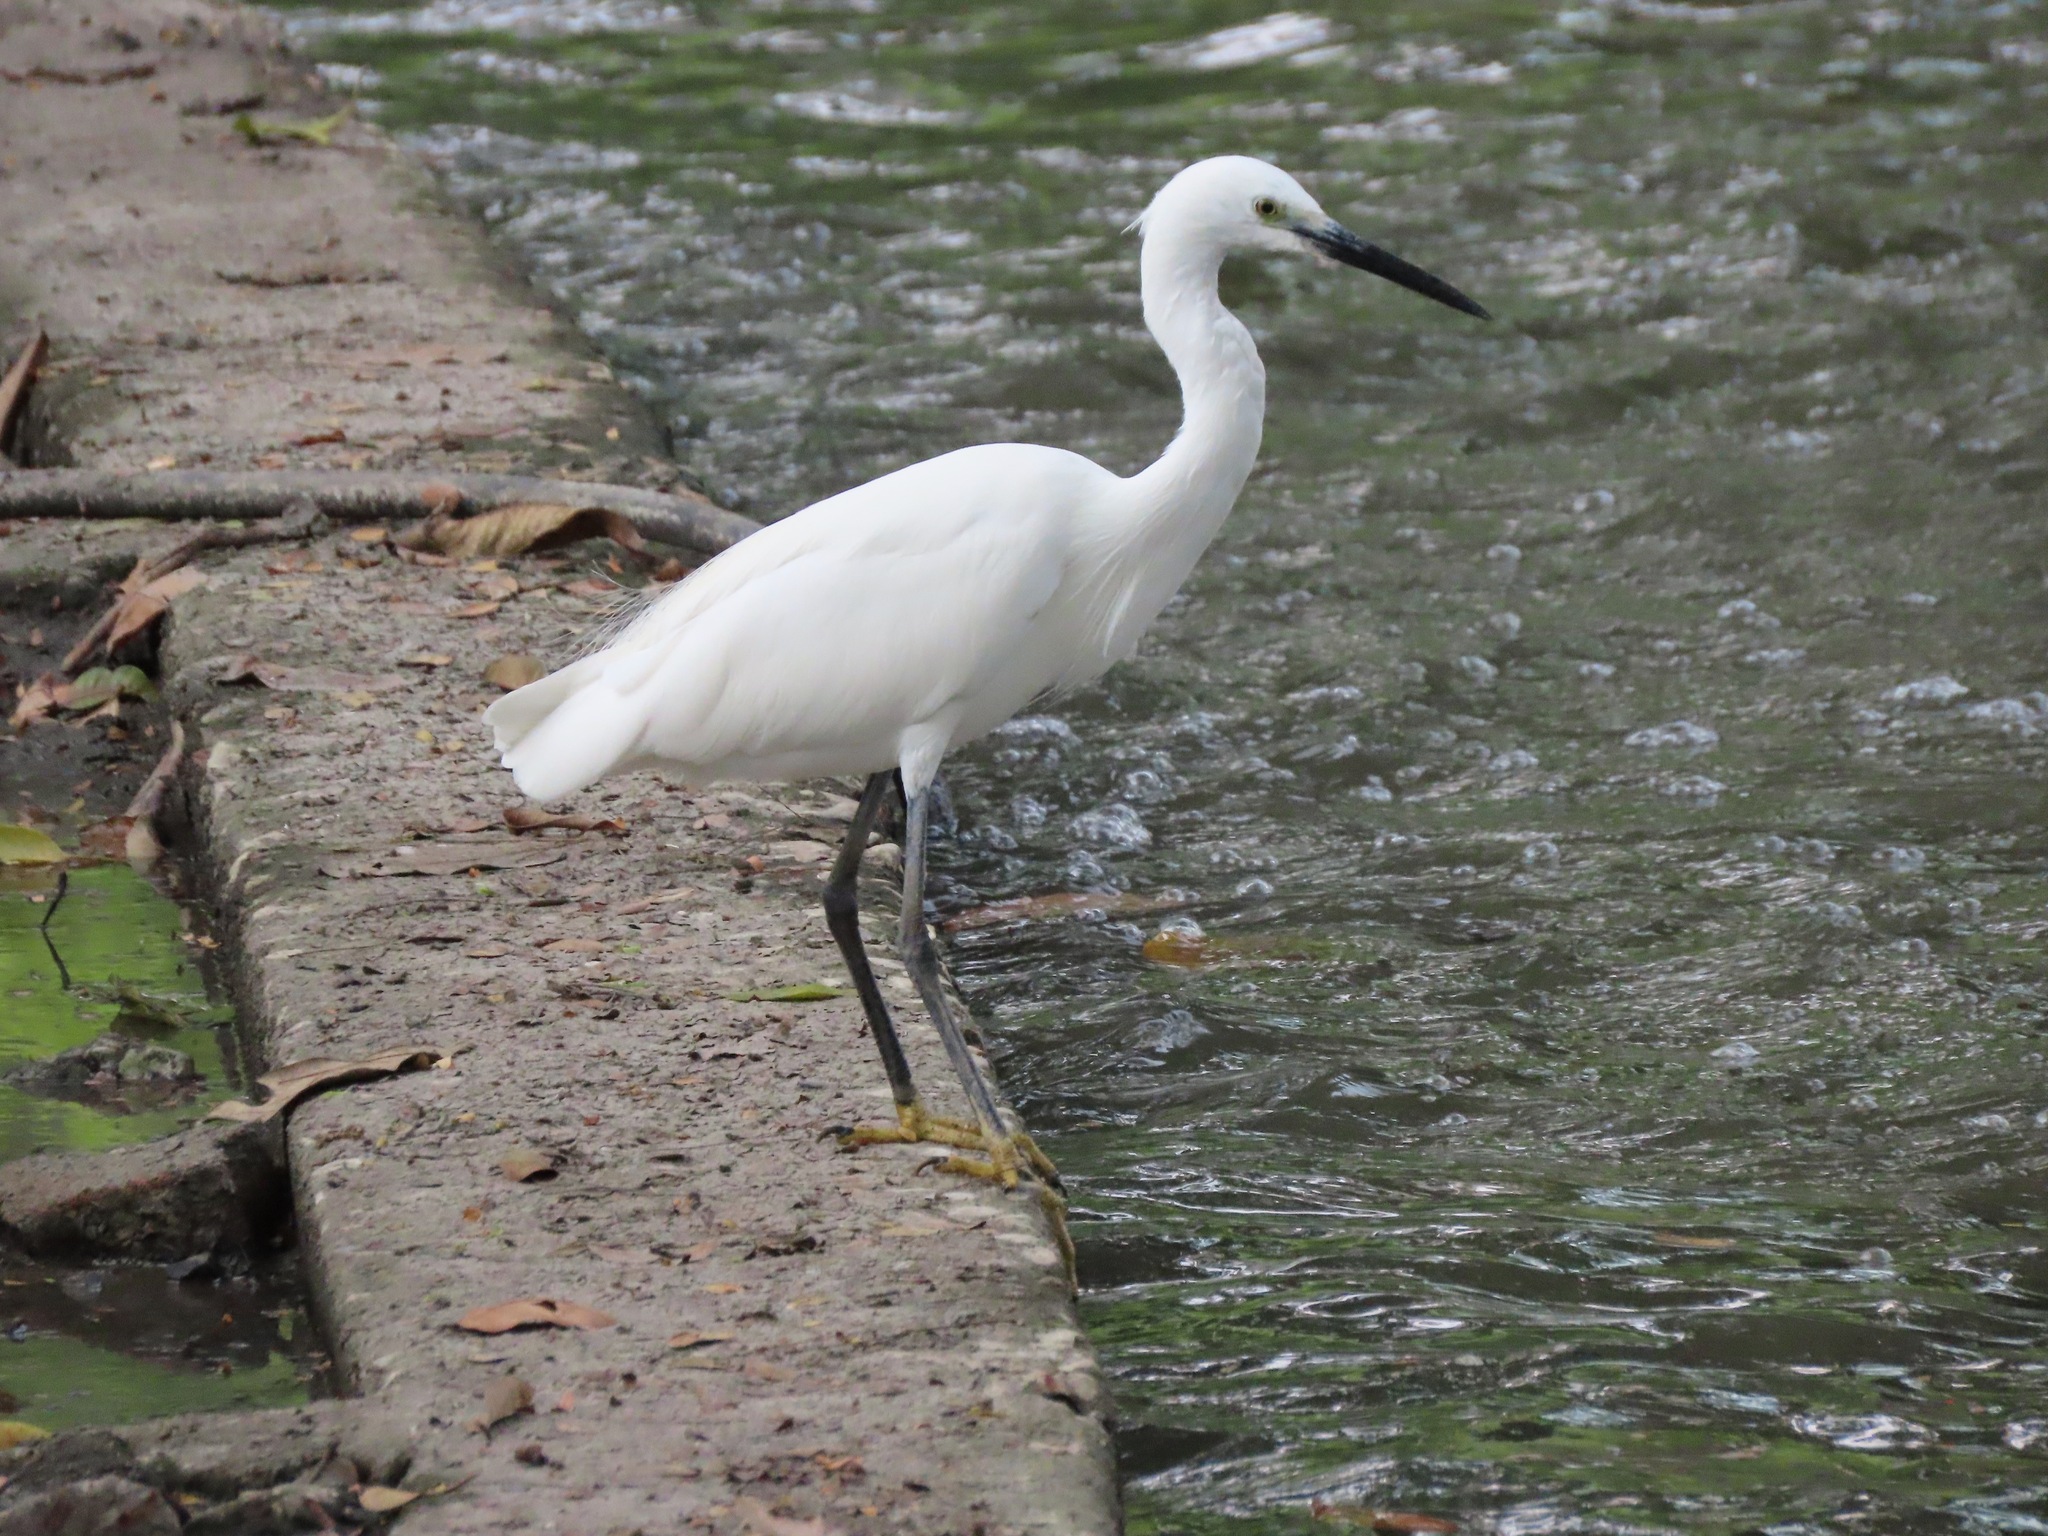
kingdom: Animalia
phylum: Chordata
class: Aves
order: Pelecaniformes
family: Ardeidae
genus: Egretta
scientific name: Egretta garzetta
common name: Little egret
